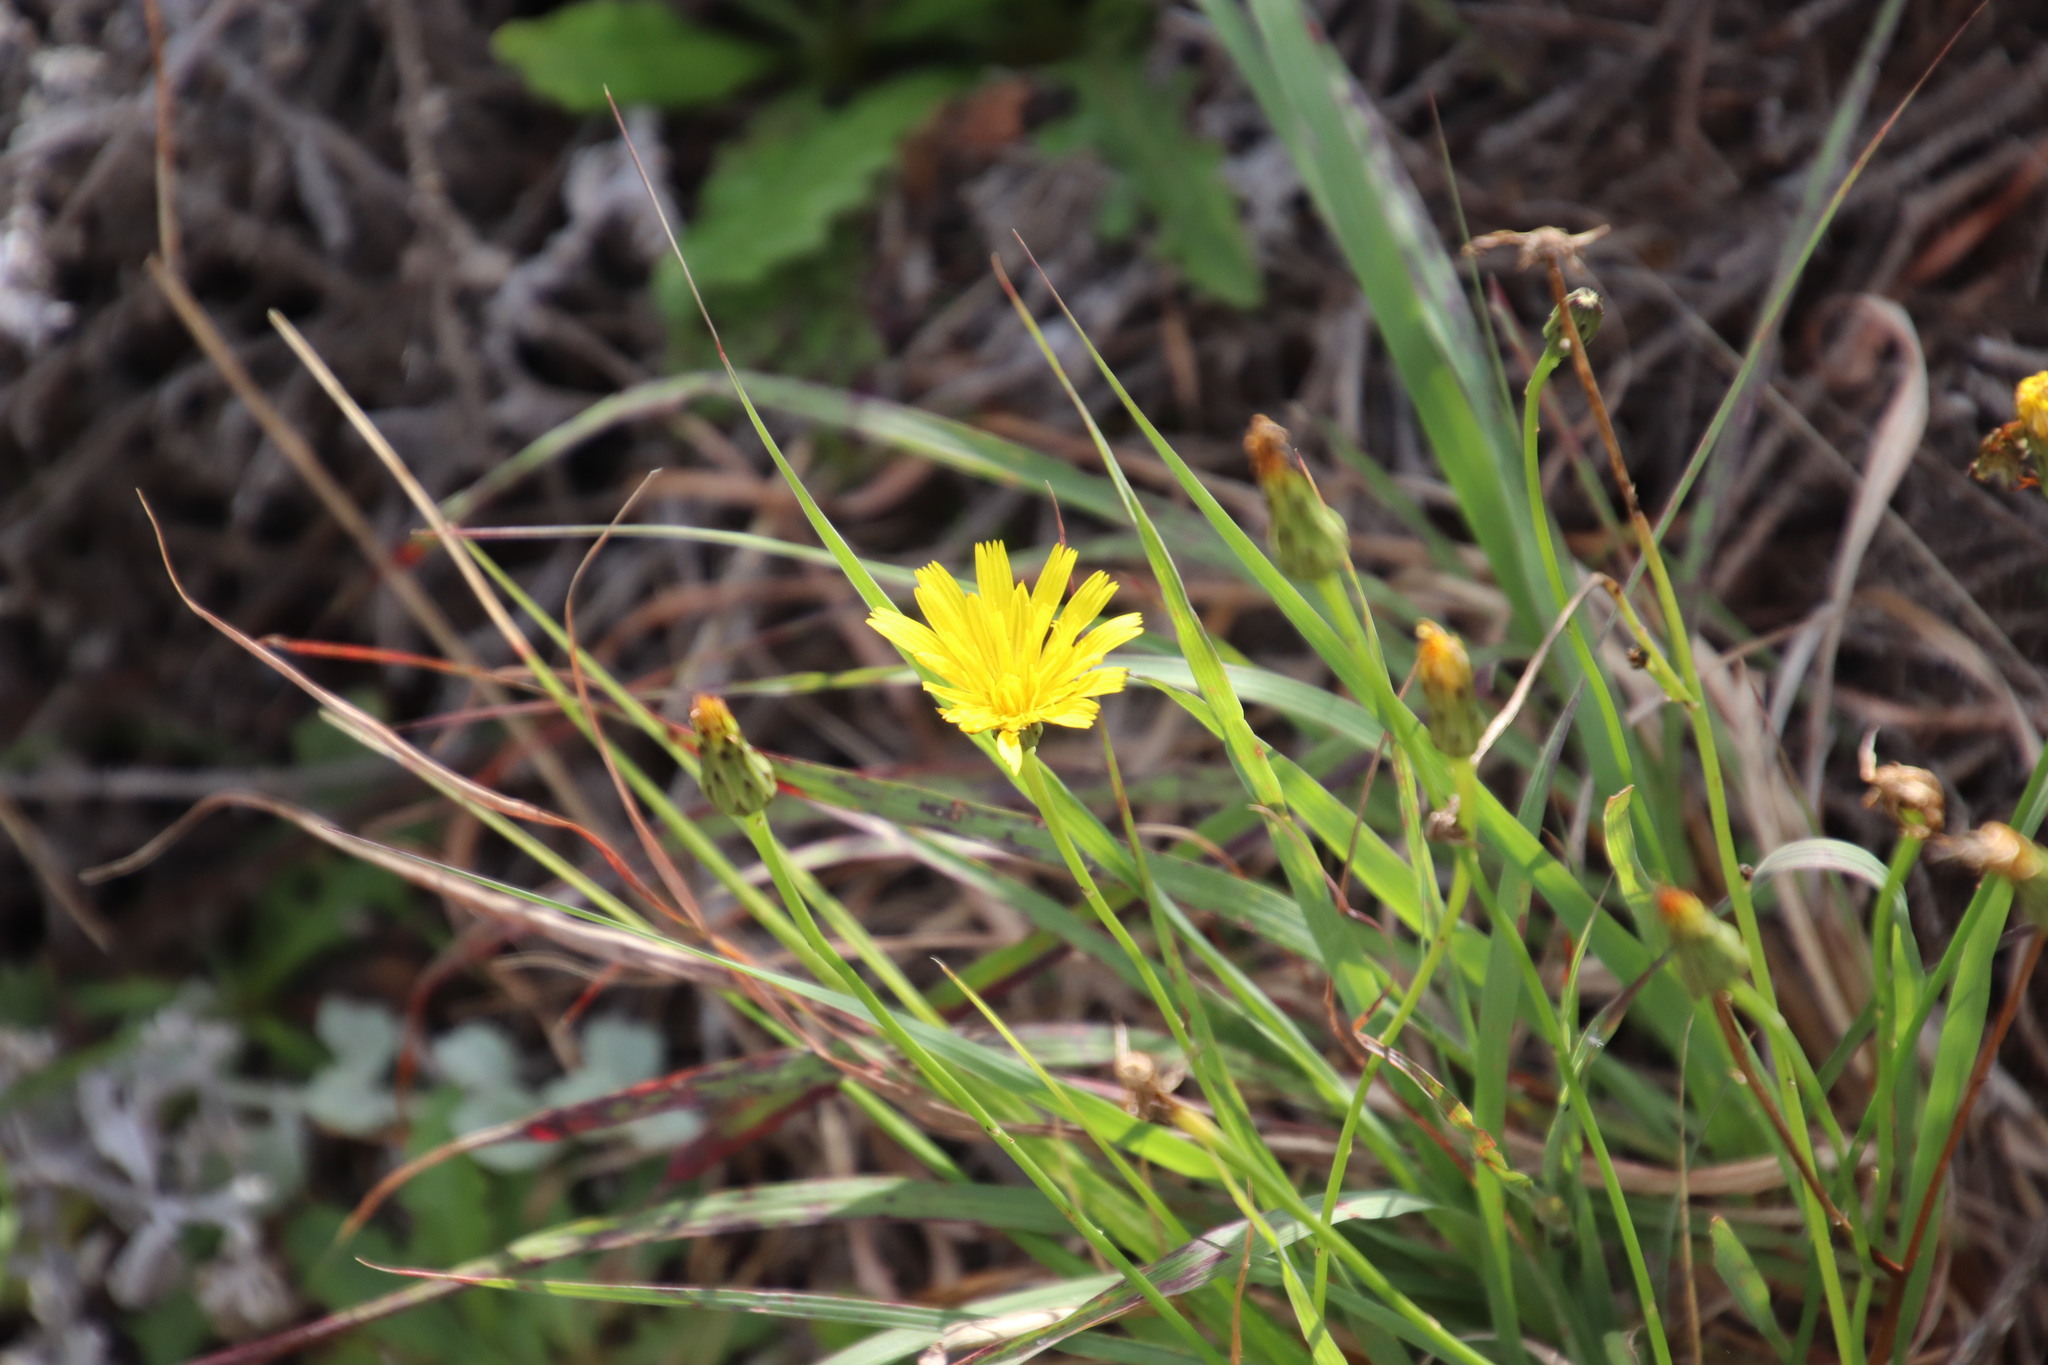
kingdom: Plantae
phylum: Tracheophyta
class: Magnoliopsida
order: Asterales
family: Asteraceae
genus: Hypochaeris
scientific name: Hypochaeris radicata
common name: Flatweed
